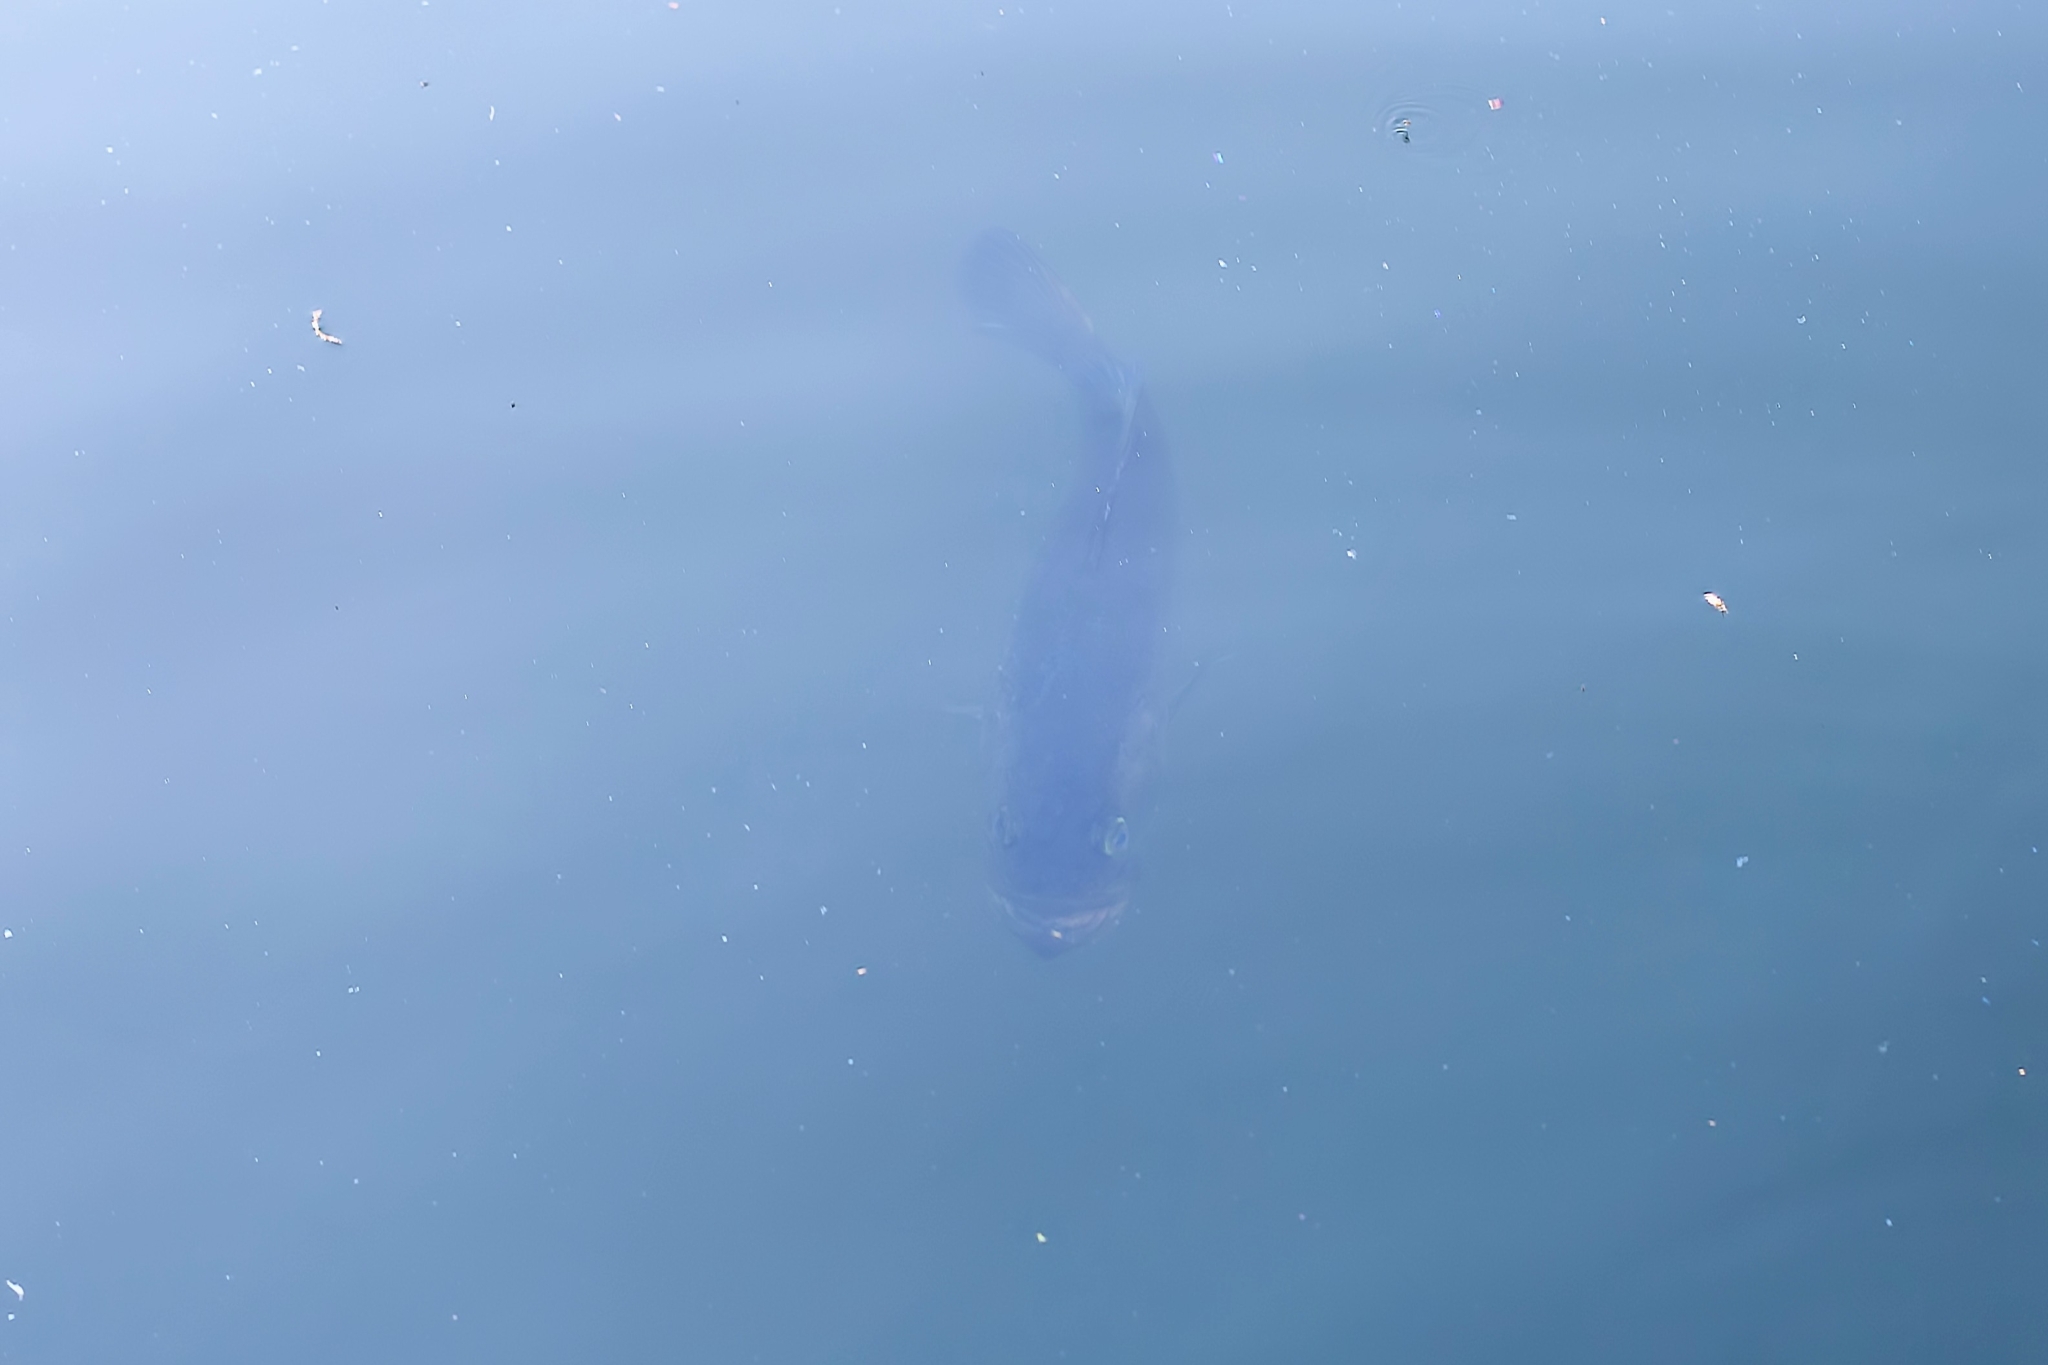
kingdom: Animalia
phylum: Chordata
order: Perciformes
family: Centrarchidae
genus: Micropterus
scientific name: Micropterus salmoides
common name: Largemouth bass
